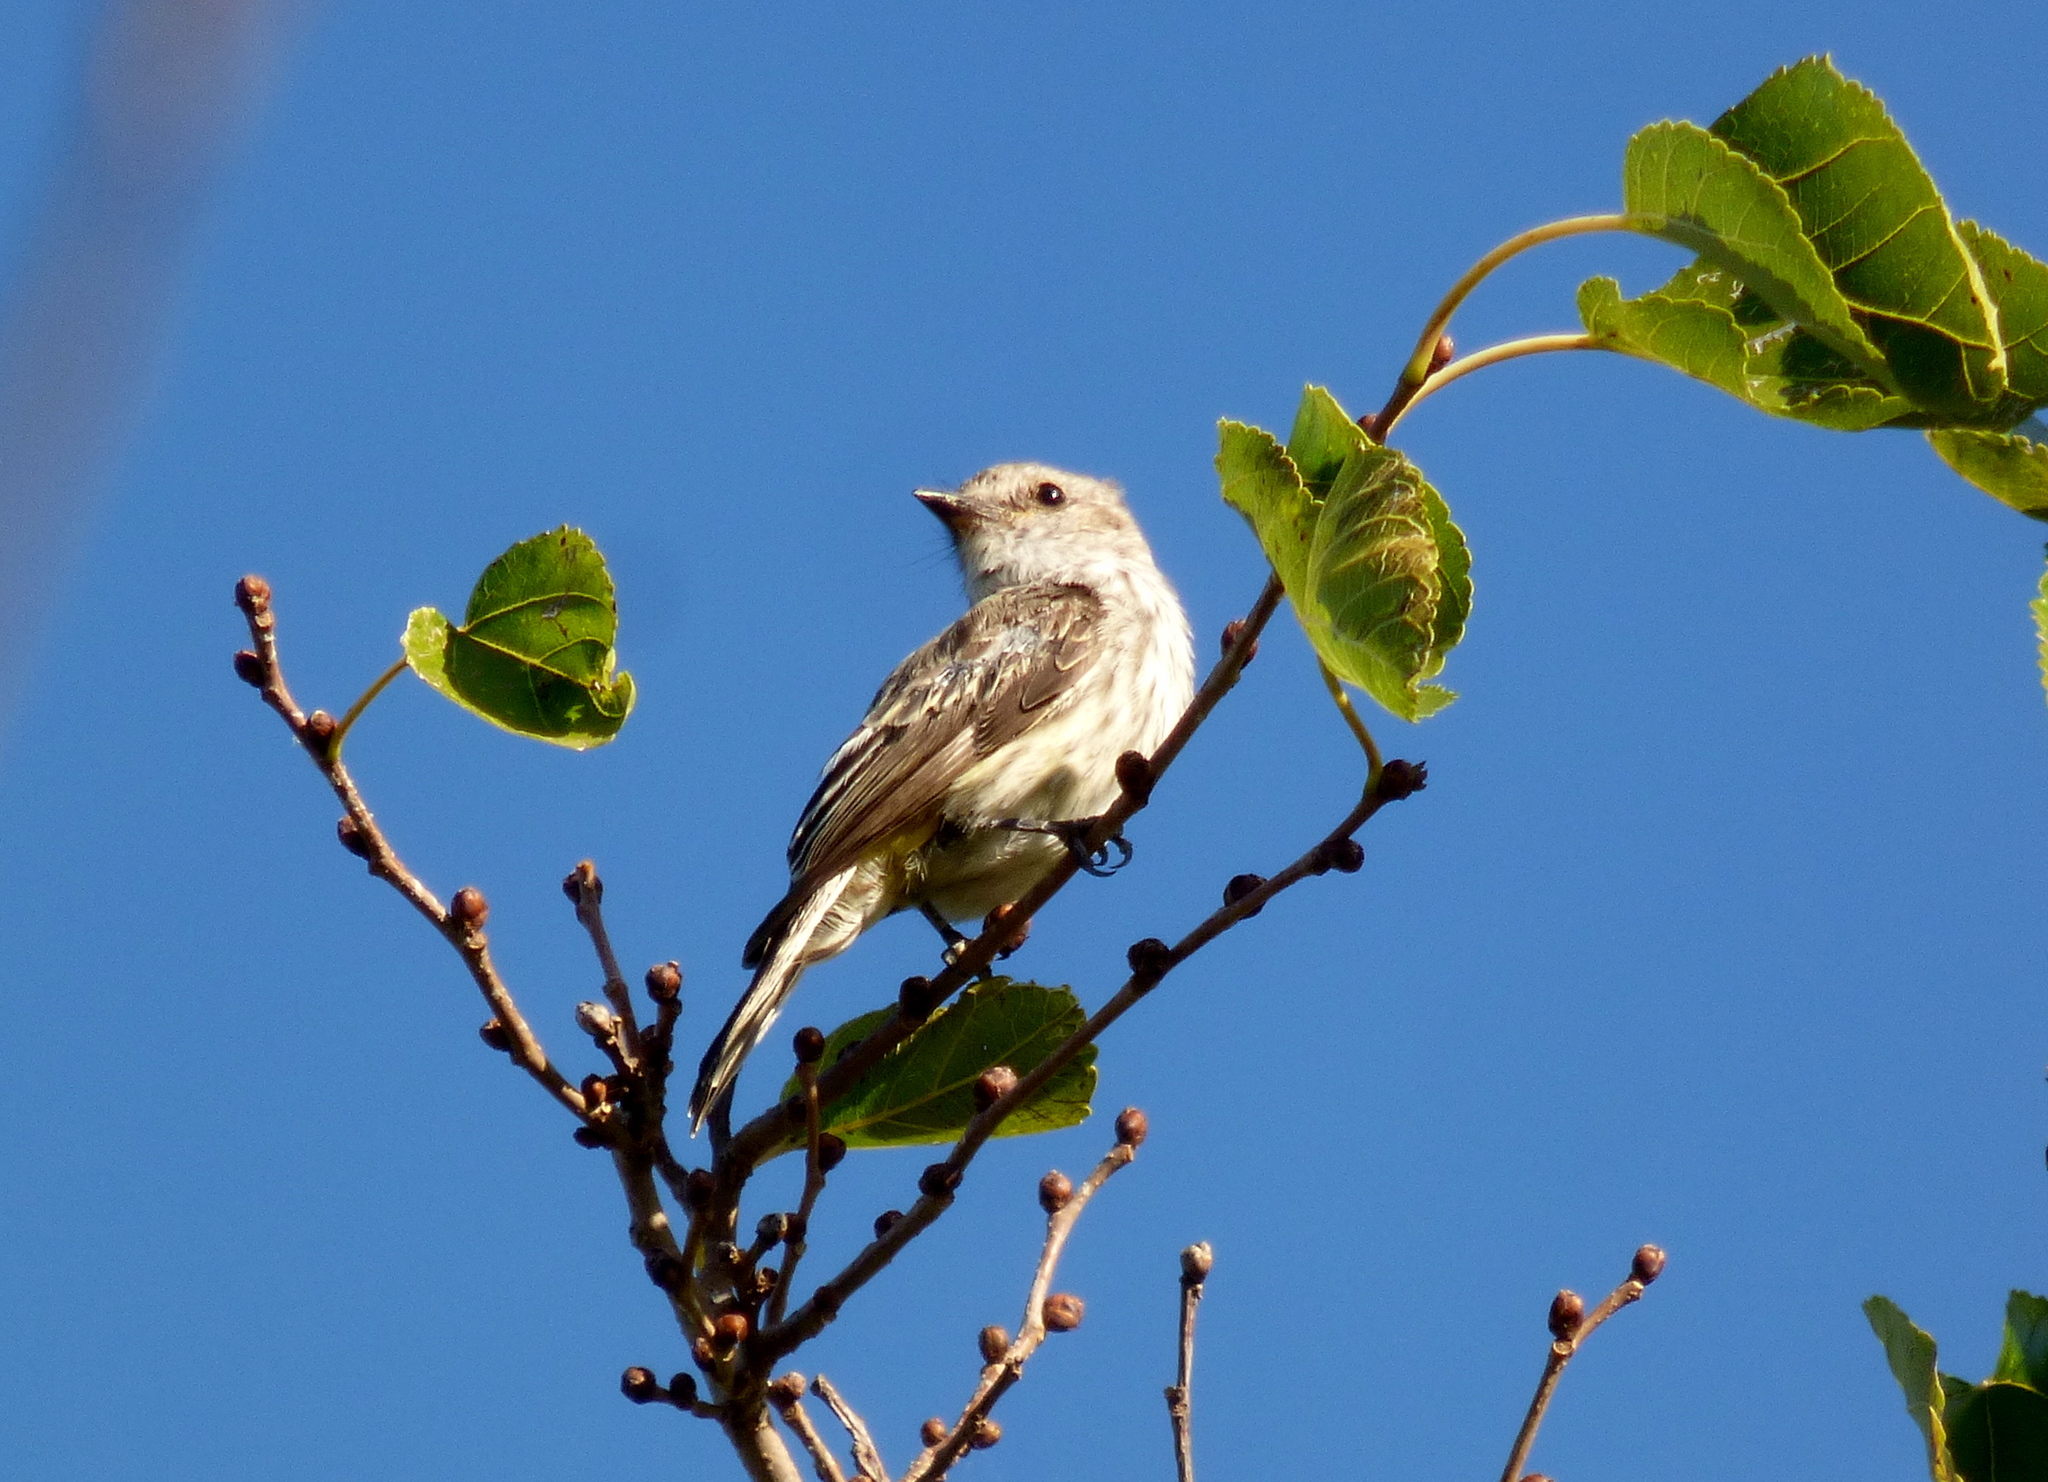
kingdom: Animalia
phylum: Chordata
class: Aves
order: Passeriformes
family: Tyrannidae
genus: Pyrocephalus
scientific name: Pyrocephalus rubinus
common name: Vermilion flycatcher
